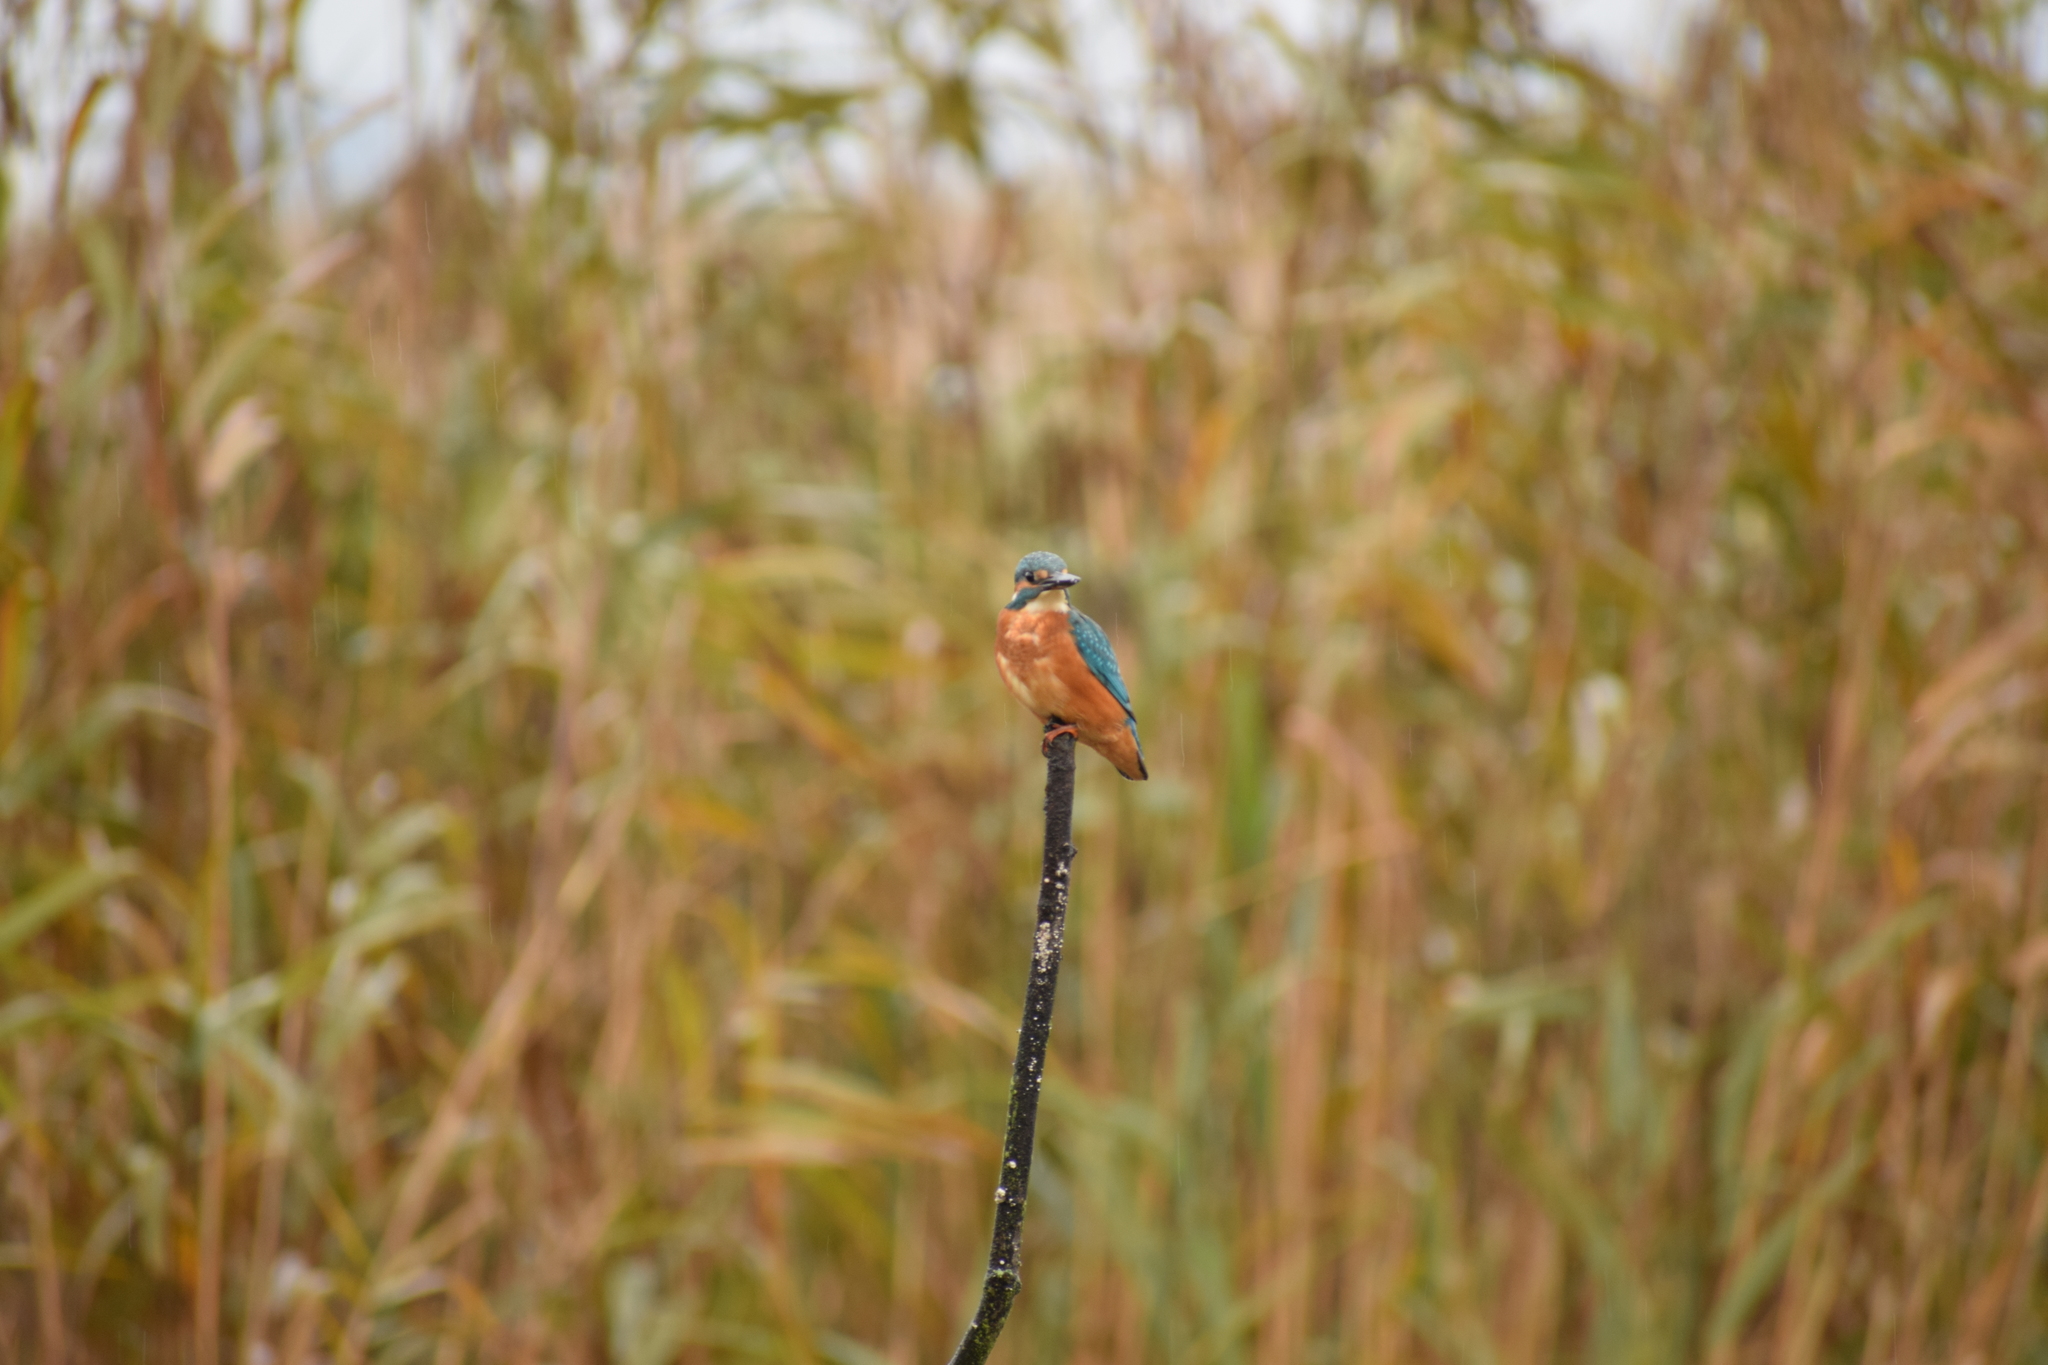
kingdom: Animalia
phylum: Chordata
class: Aves
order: Coraciiformes
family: Alcedinidae
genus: Alcedo
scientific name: Alcedo atthis
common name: Common kingfisher
